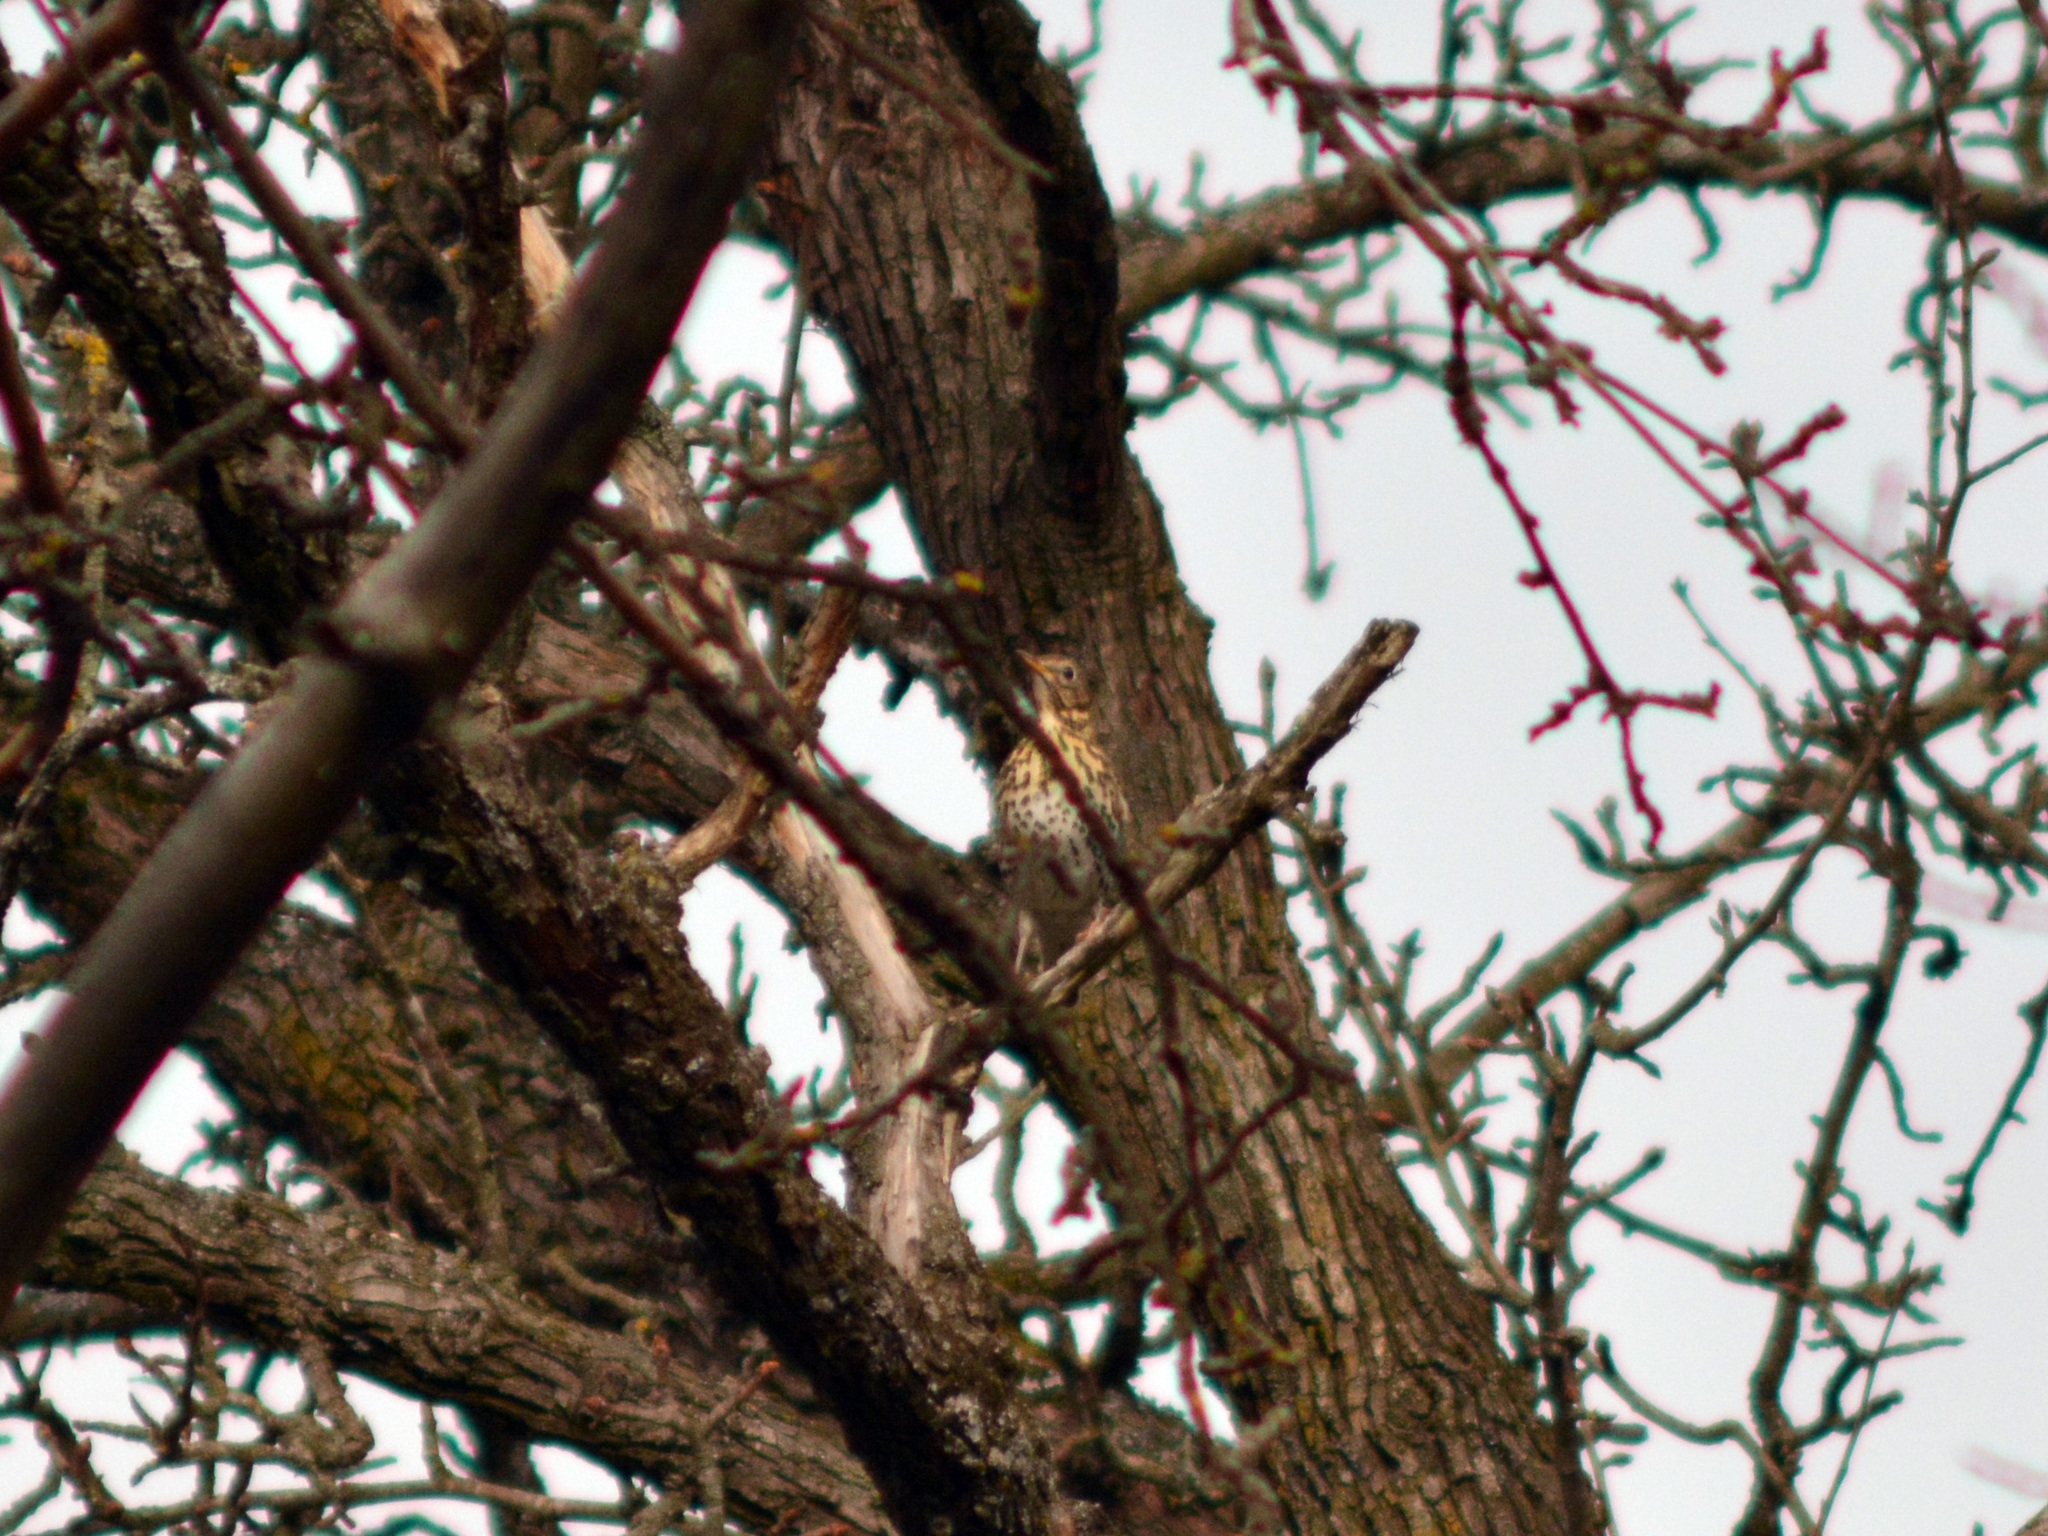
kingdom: Animalia
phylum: Chordata
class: Aves
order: Passeriformes
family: Turdidae
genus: Turdus
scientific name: Turdus philomelos
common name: Song thrush
